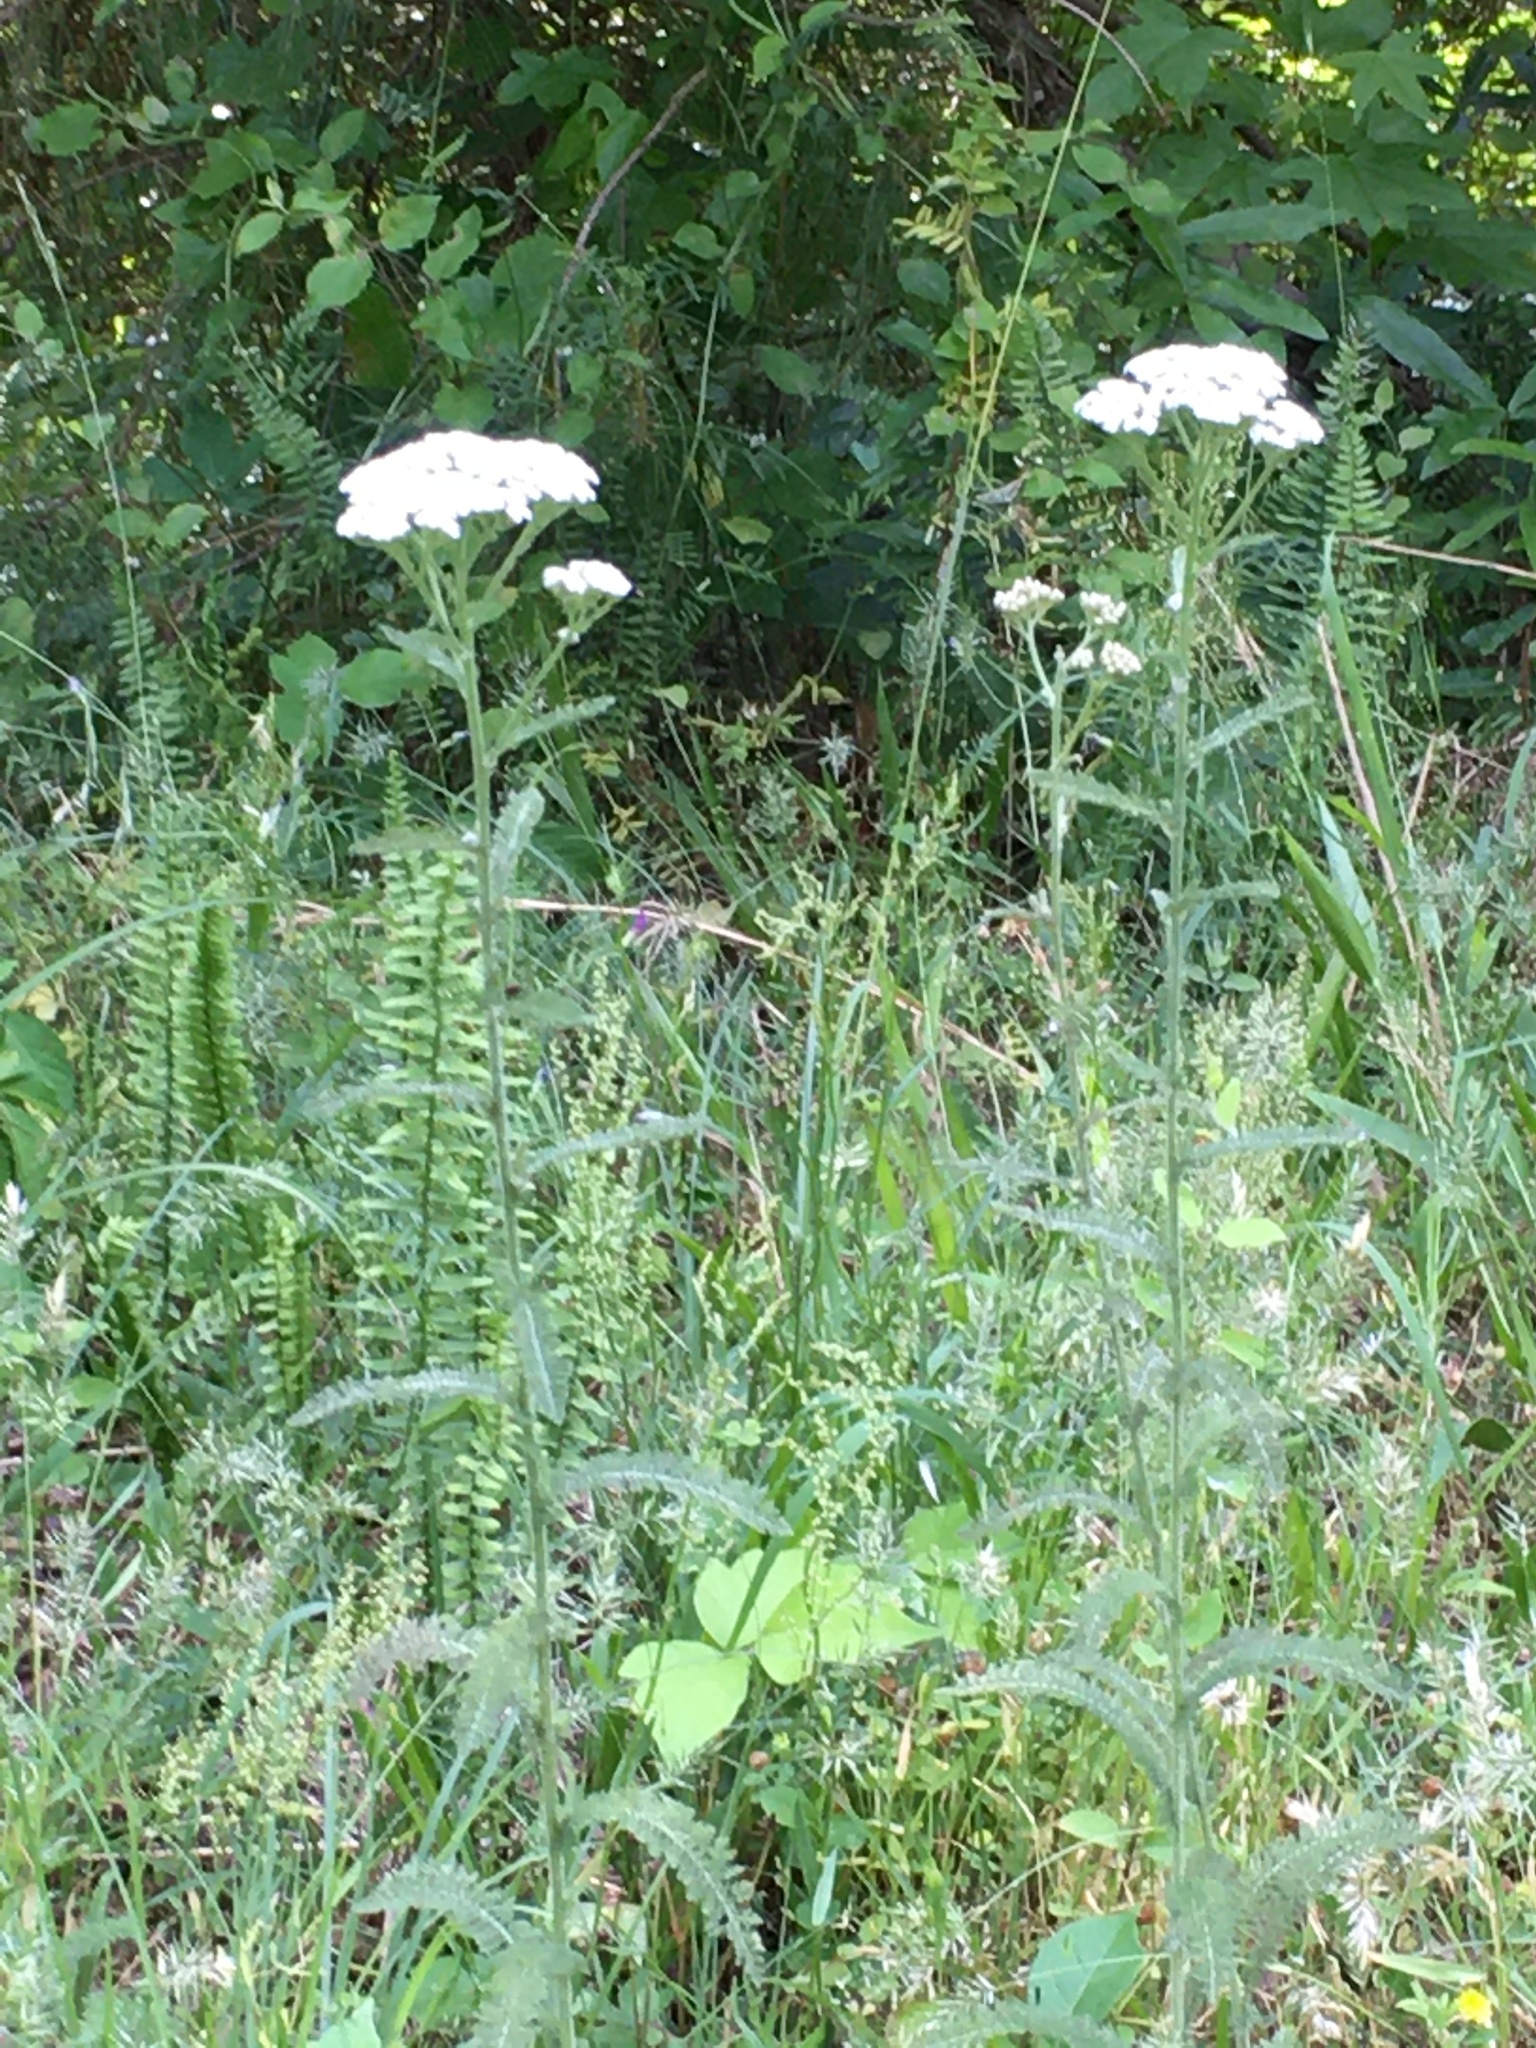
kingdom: Plantae
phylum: Tracheophyta
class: Magnoliopsida
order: Asterales
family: Asteraceae
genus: Achillea
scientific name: Achillea millefolium
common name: Yarrow
